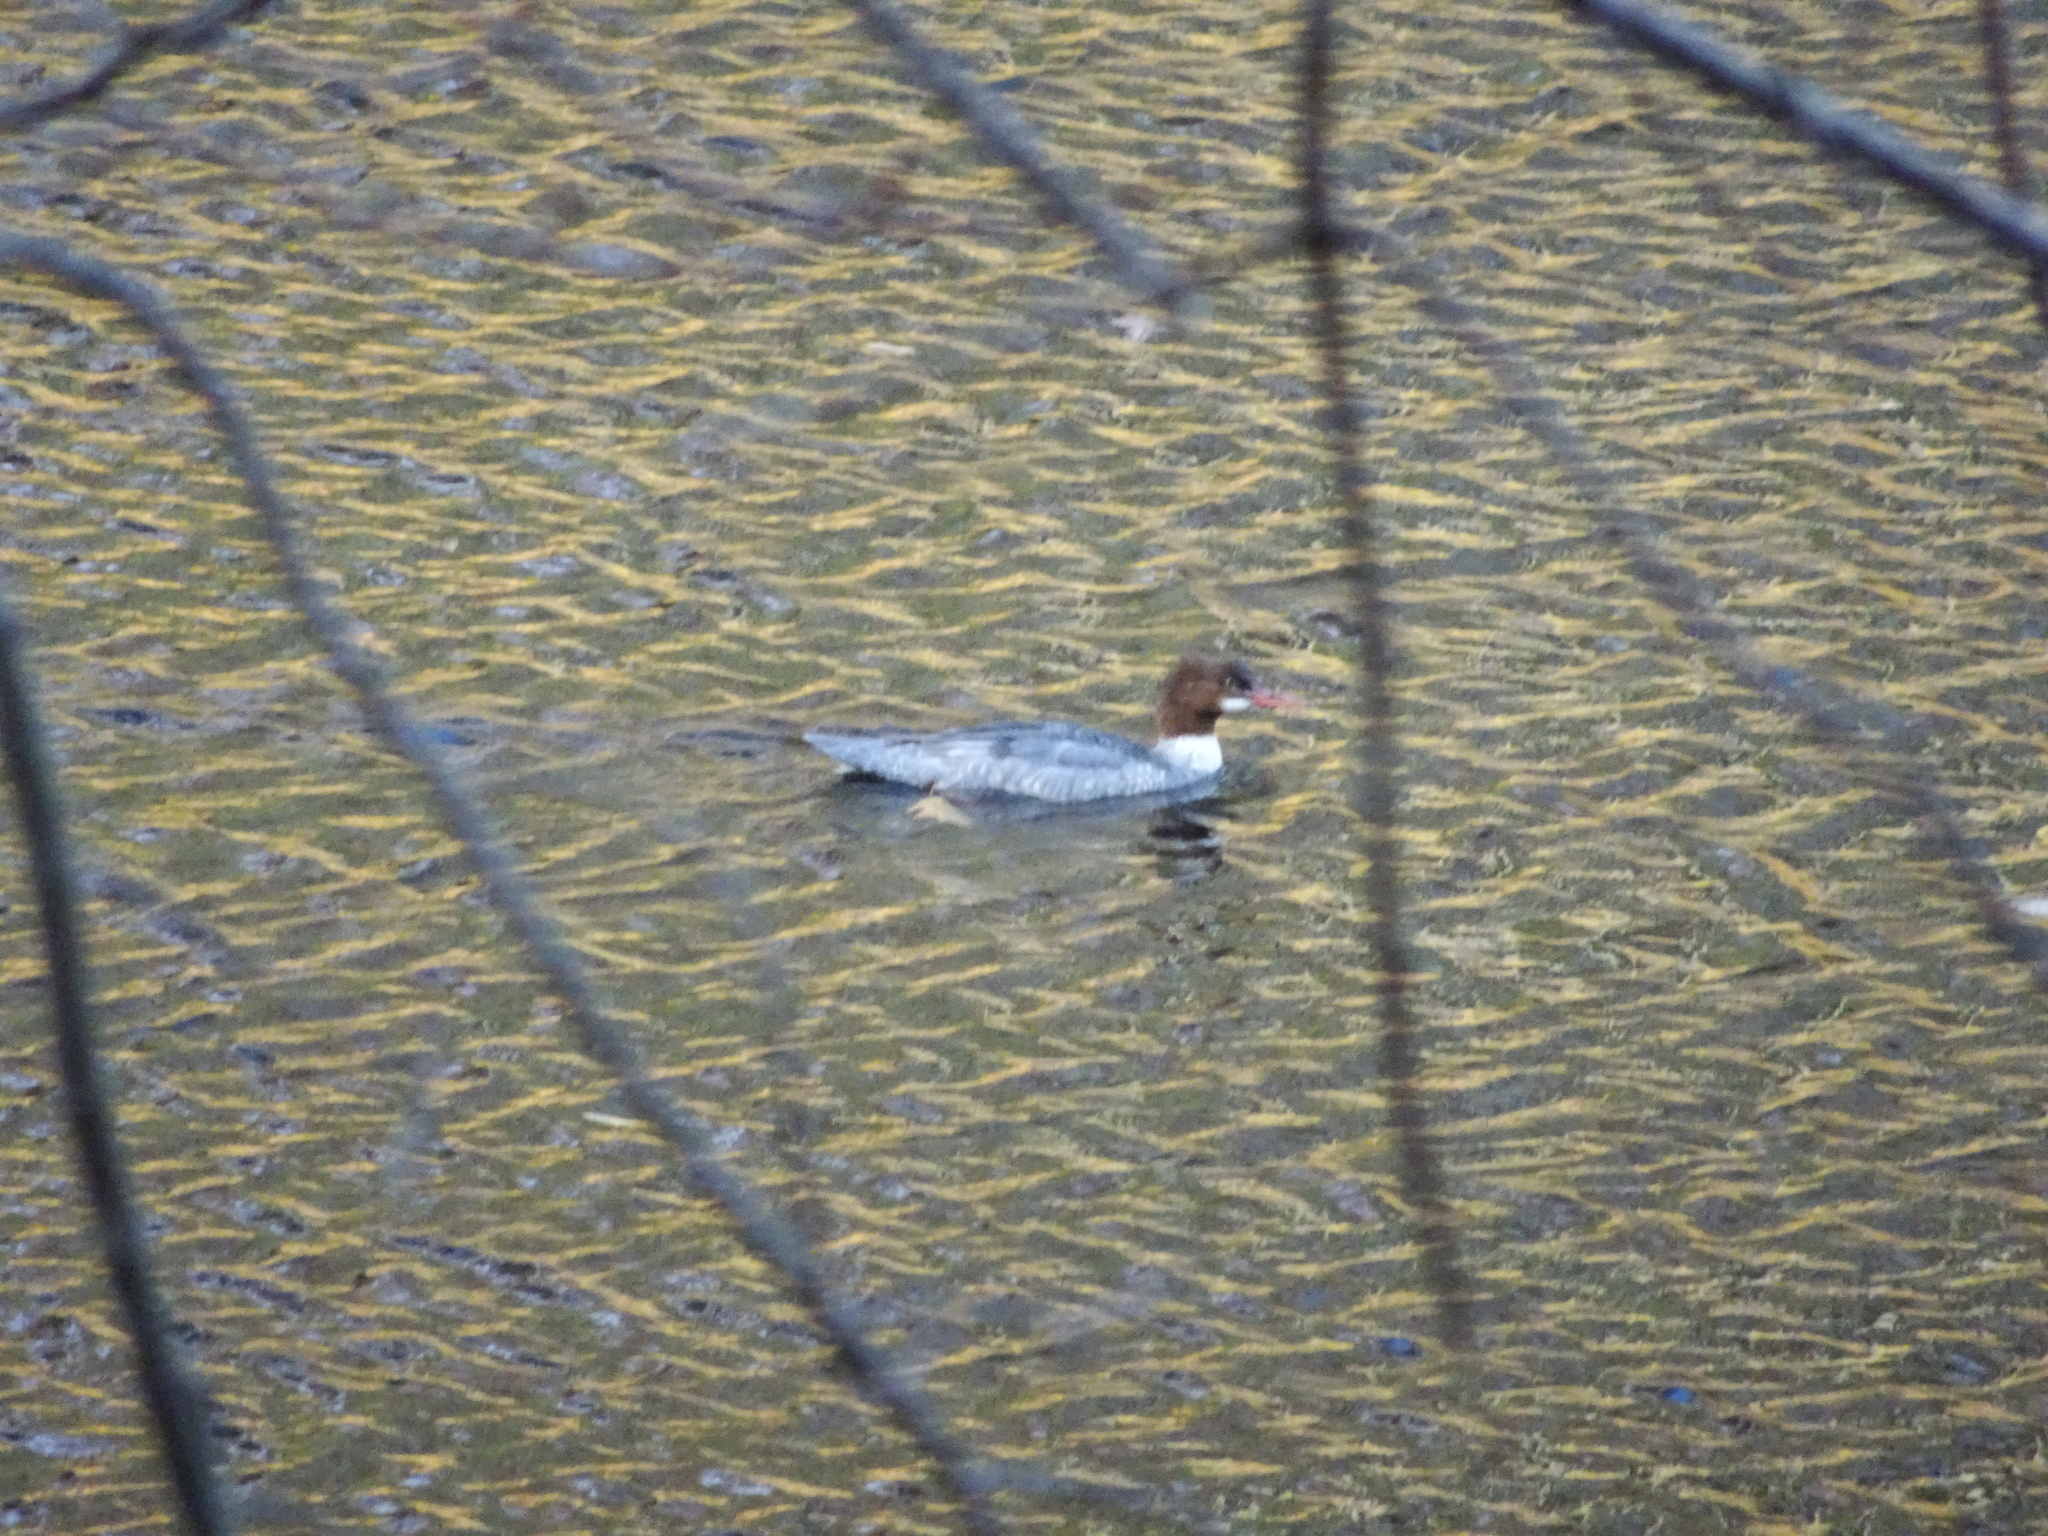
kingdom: Animalia
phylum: Chordata
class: Aves
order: Anseriformes
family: Anatidae
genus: Mergus
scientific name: Mergus merganser
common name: Common merganser
